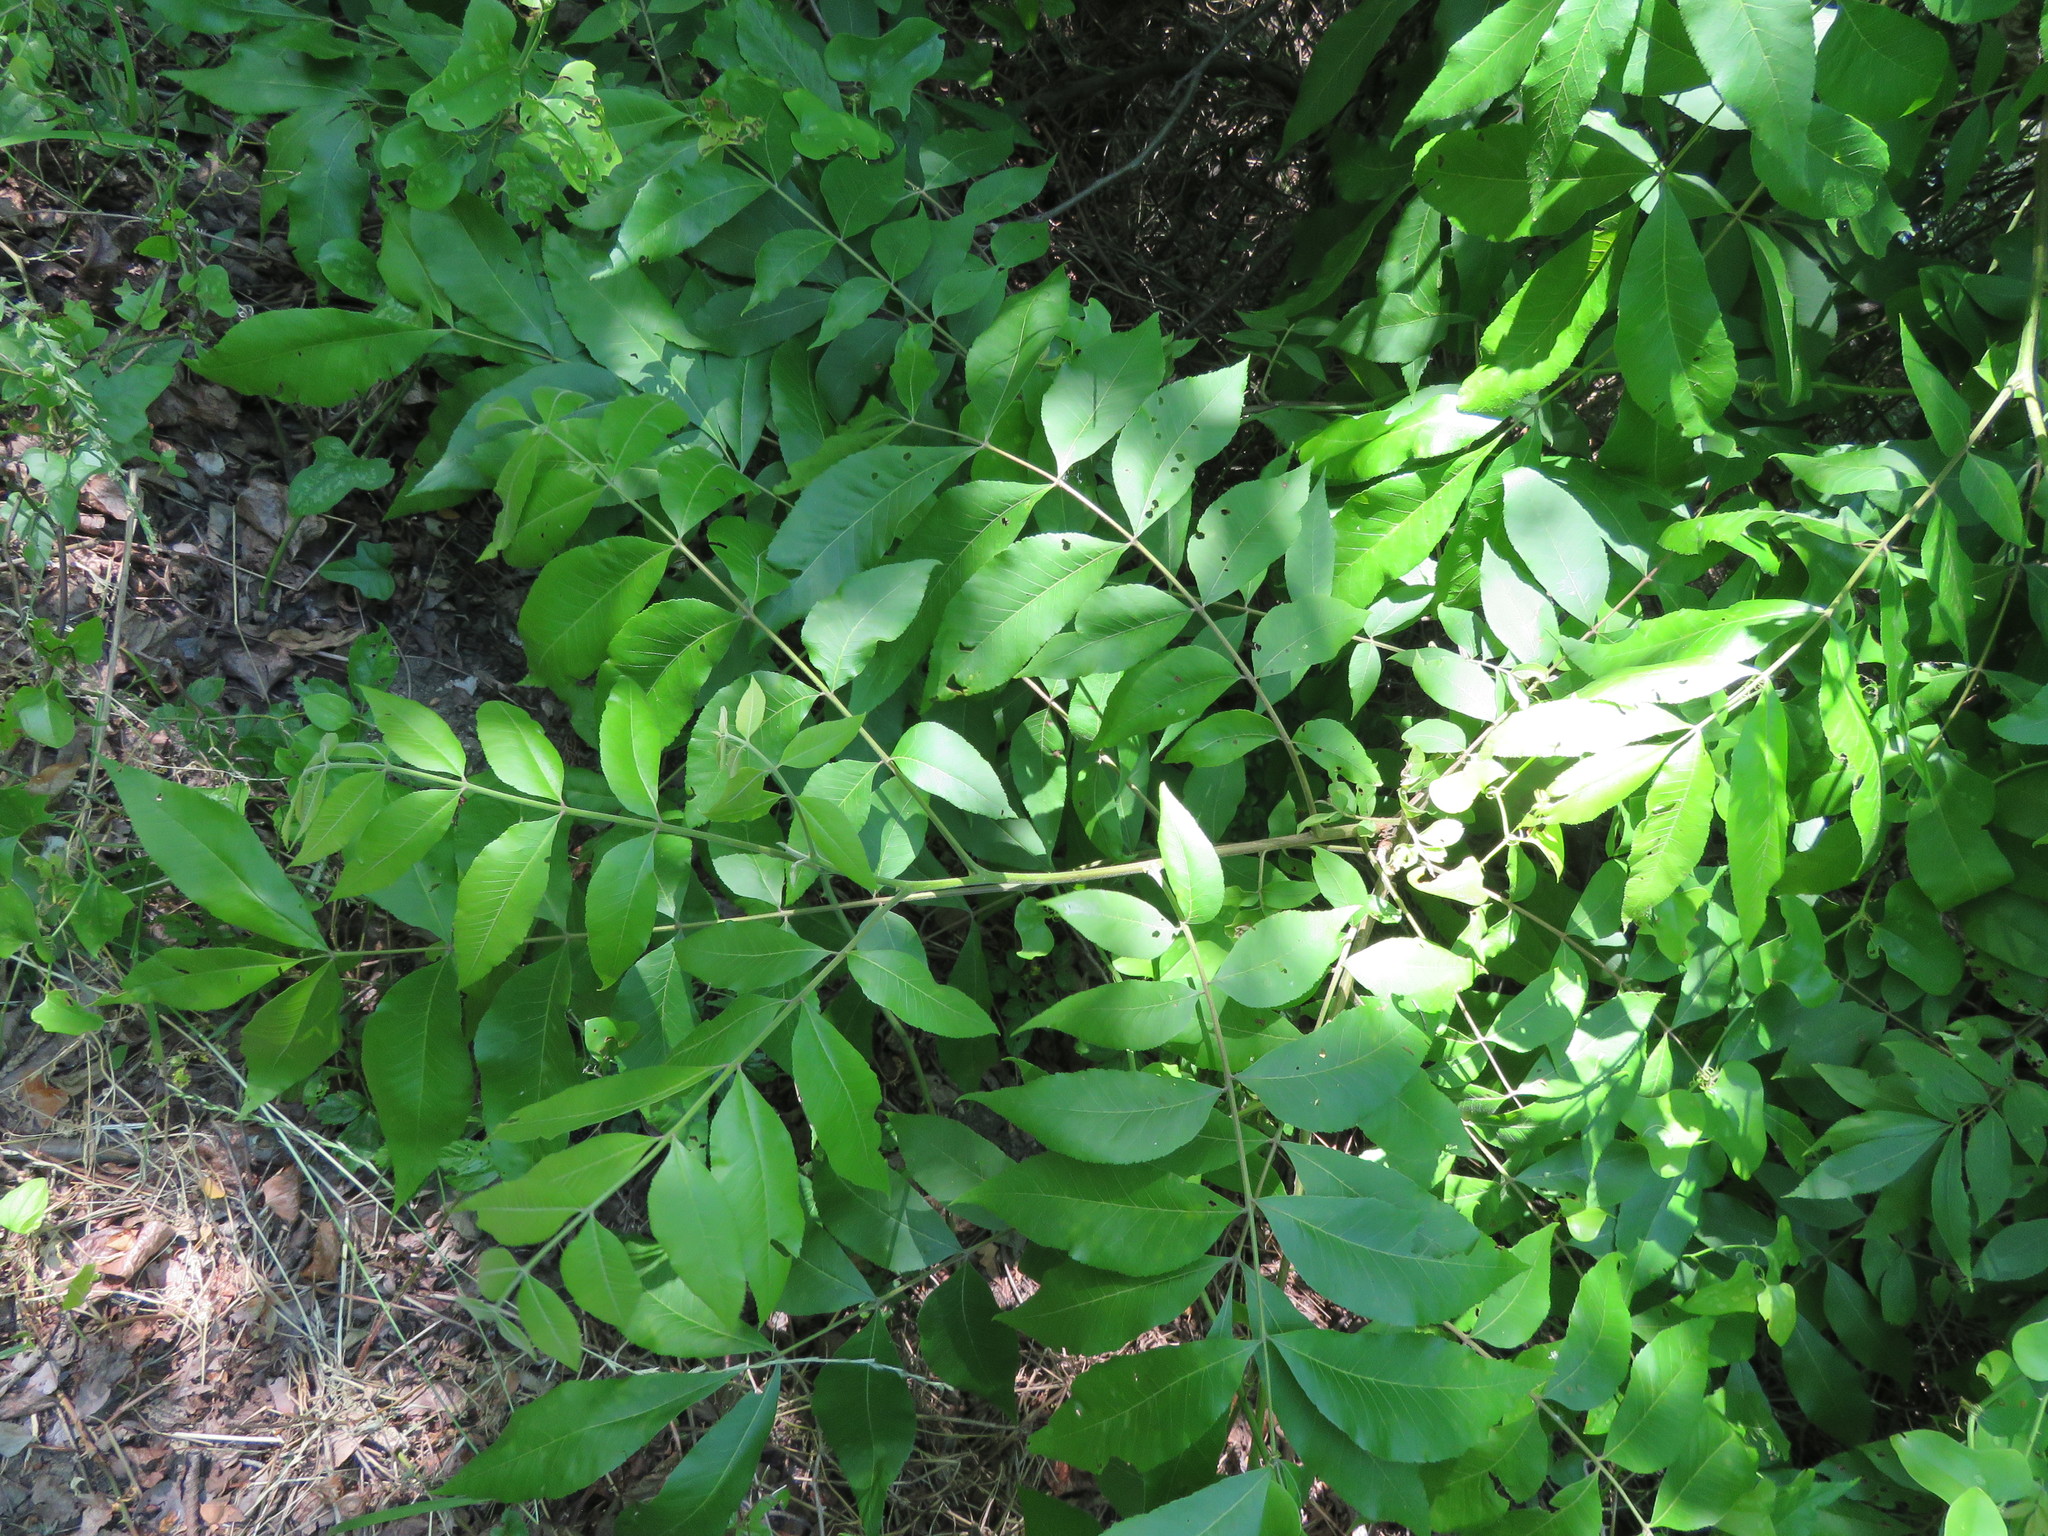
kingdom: Plantae
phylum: Tracheophyta
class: Magnoliopsida
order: Fagales
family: Juglandaceae
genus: Carya
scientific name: Carya illinoinensis
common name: Pecan
